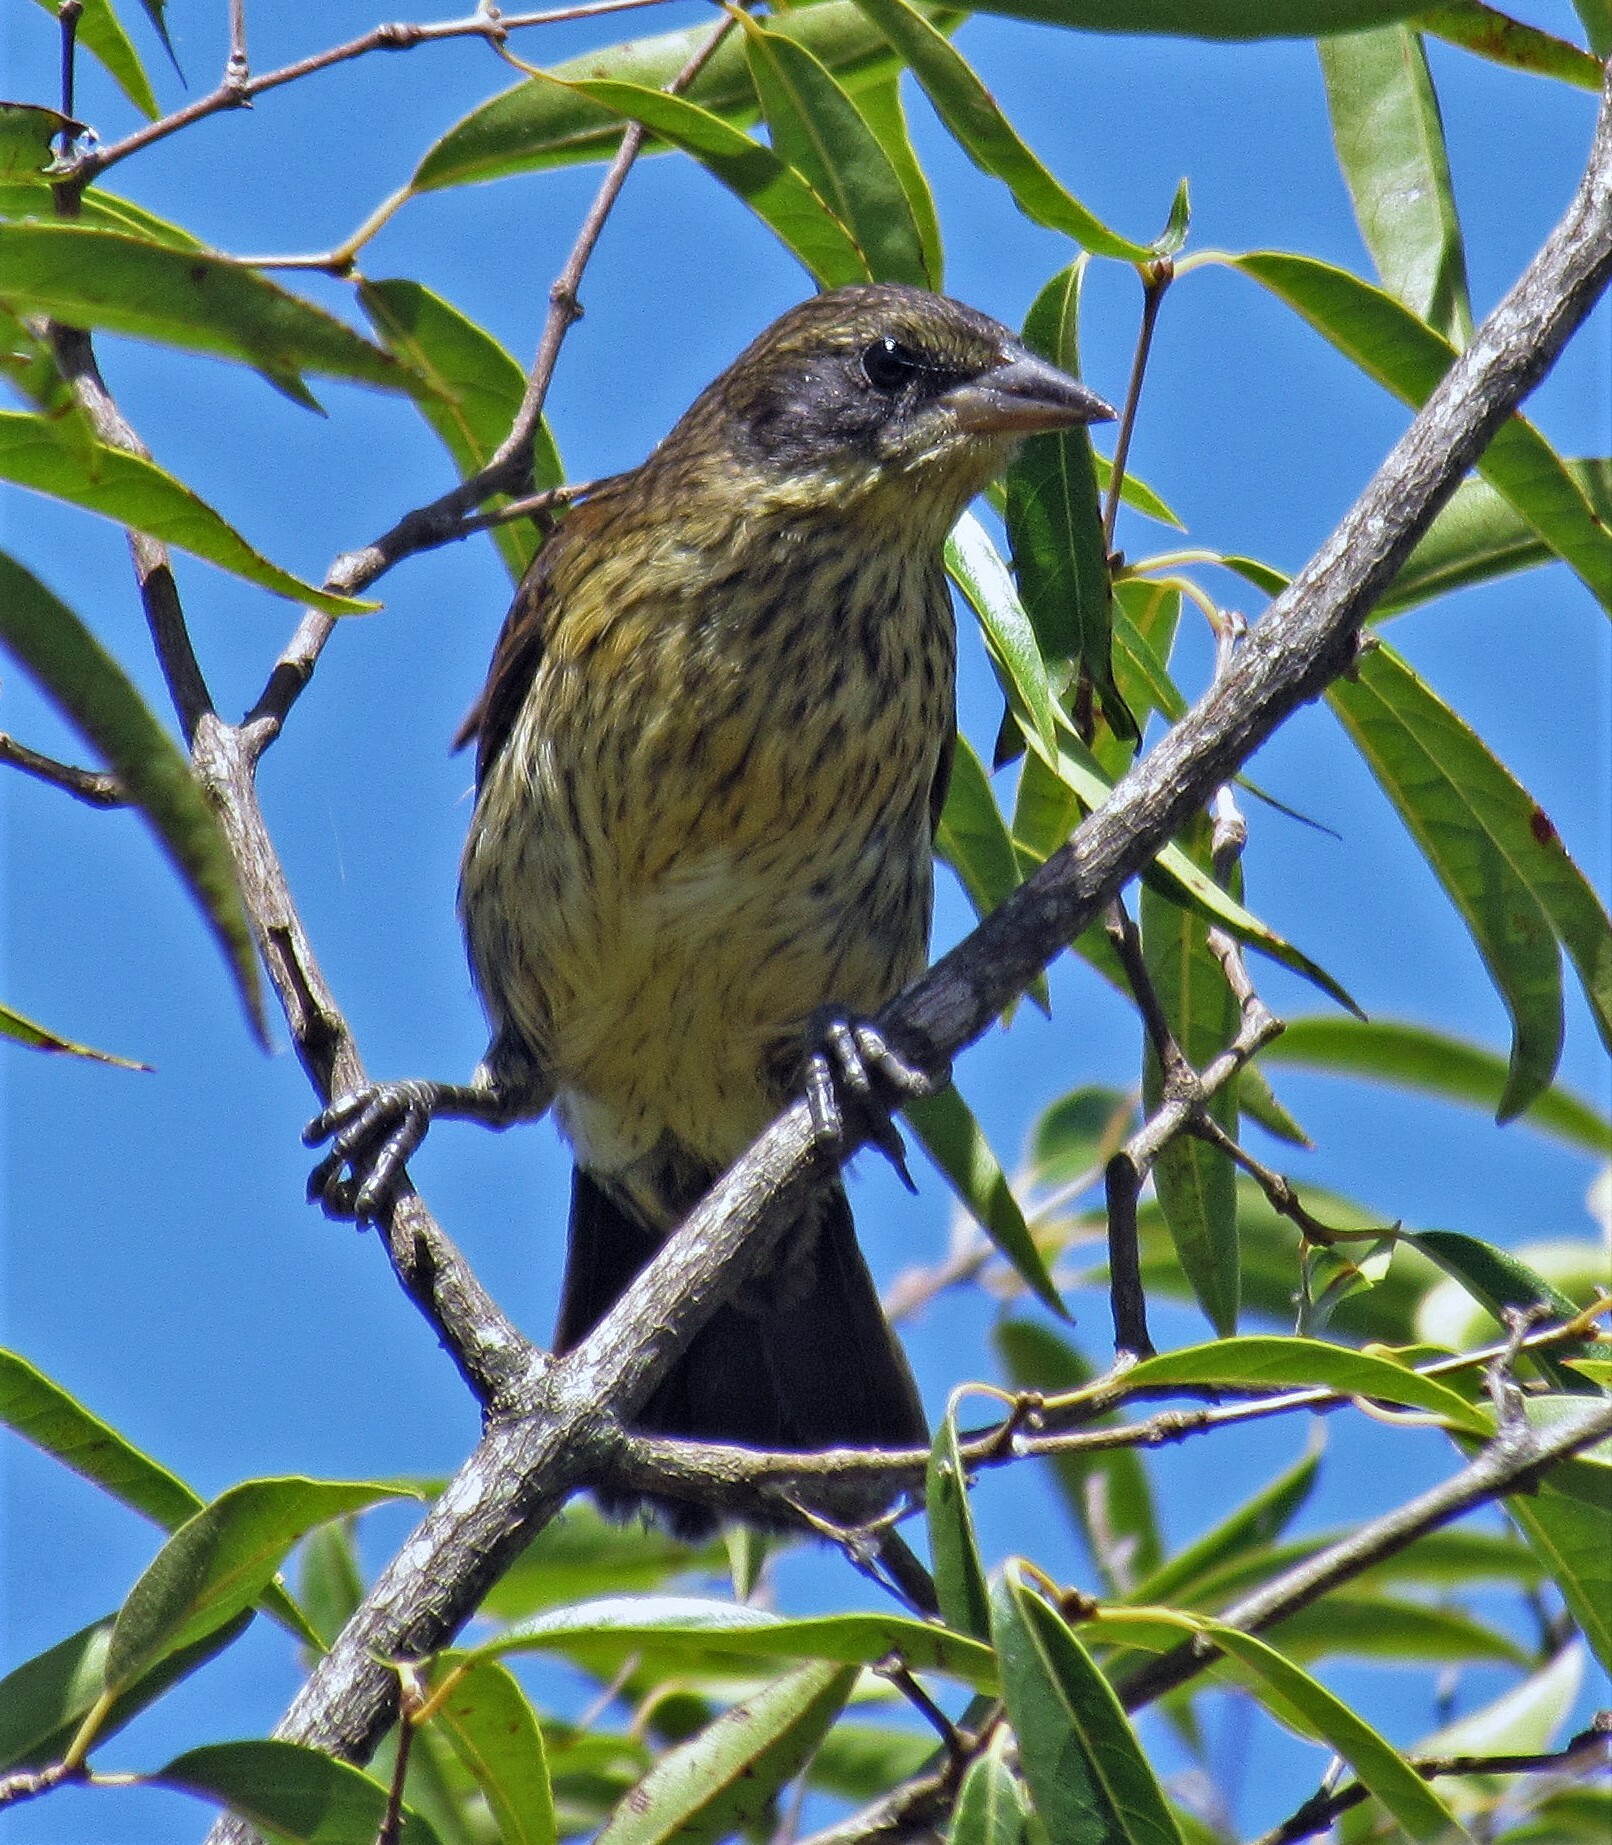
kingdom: Animalia
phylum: Chordata
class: Aves
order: Passeriformes
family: Icteridae
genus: Agelasticus
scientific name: Agelasticus cyanopus
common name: Unicolored blackbird
